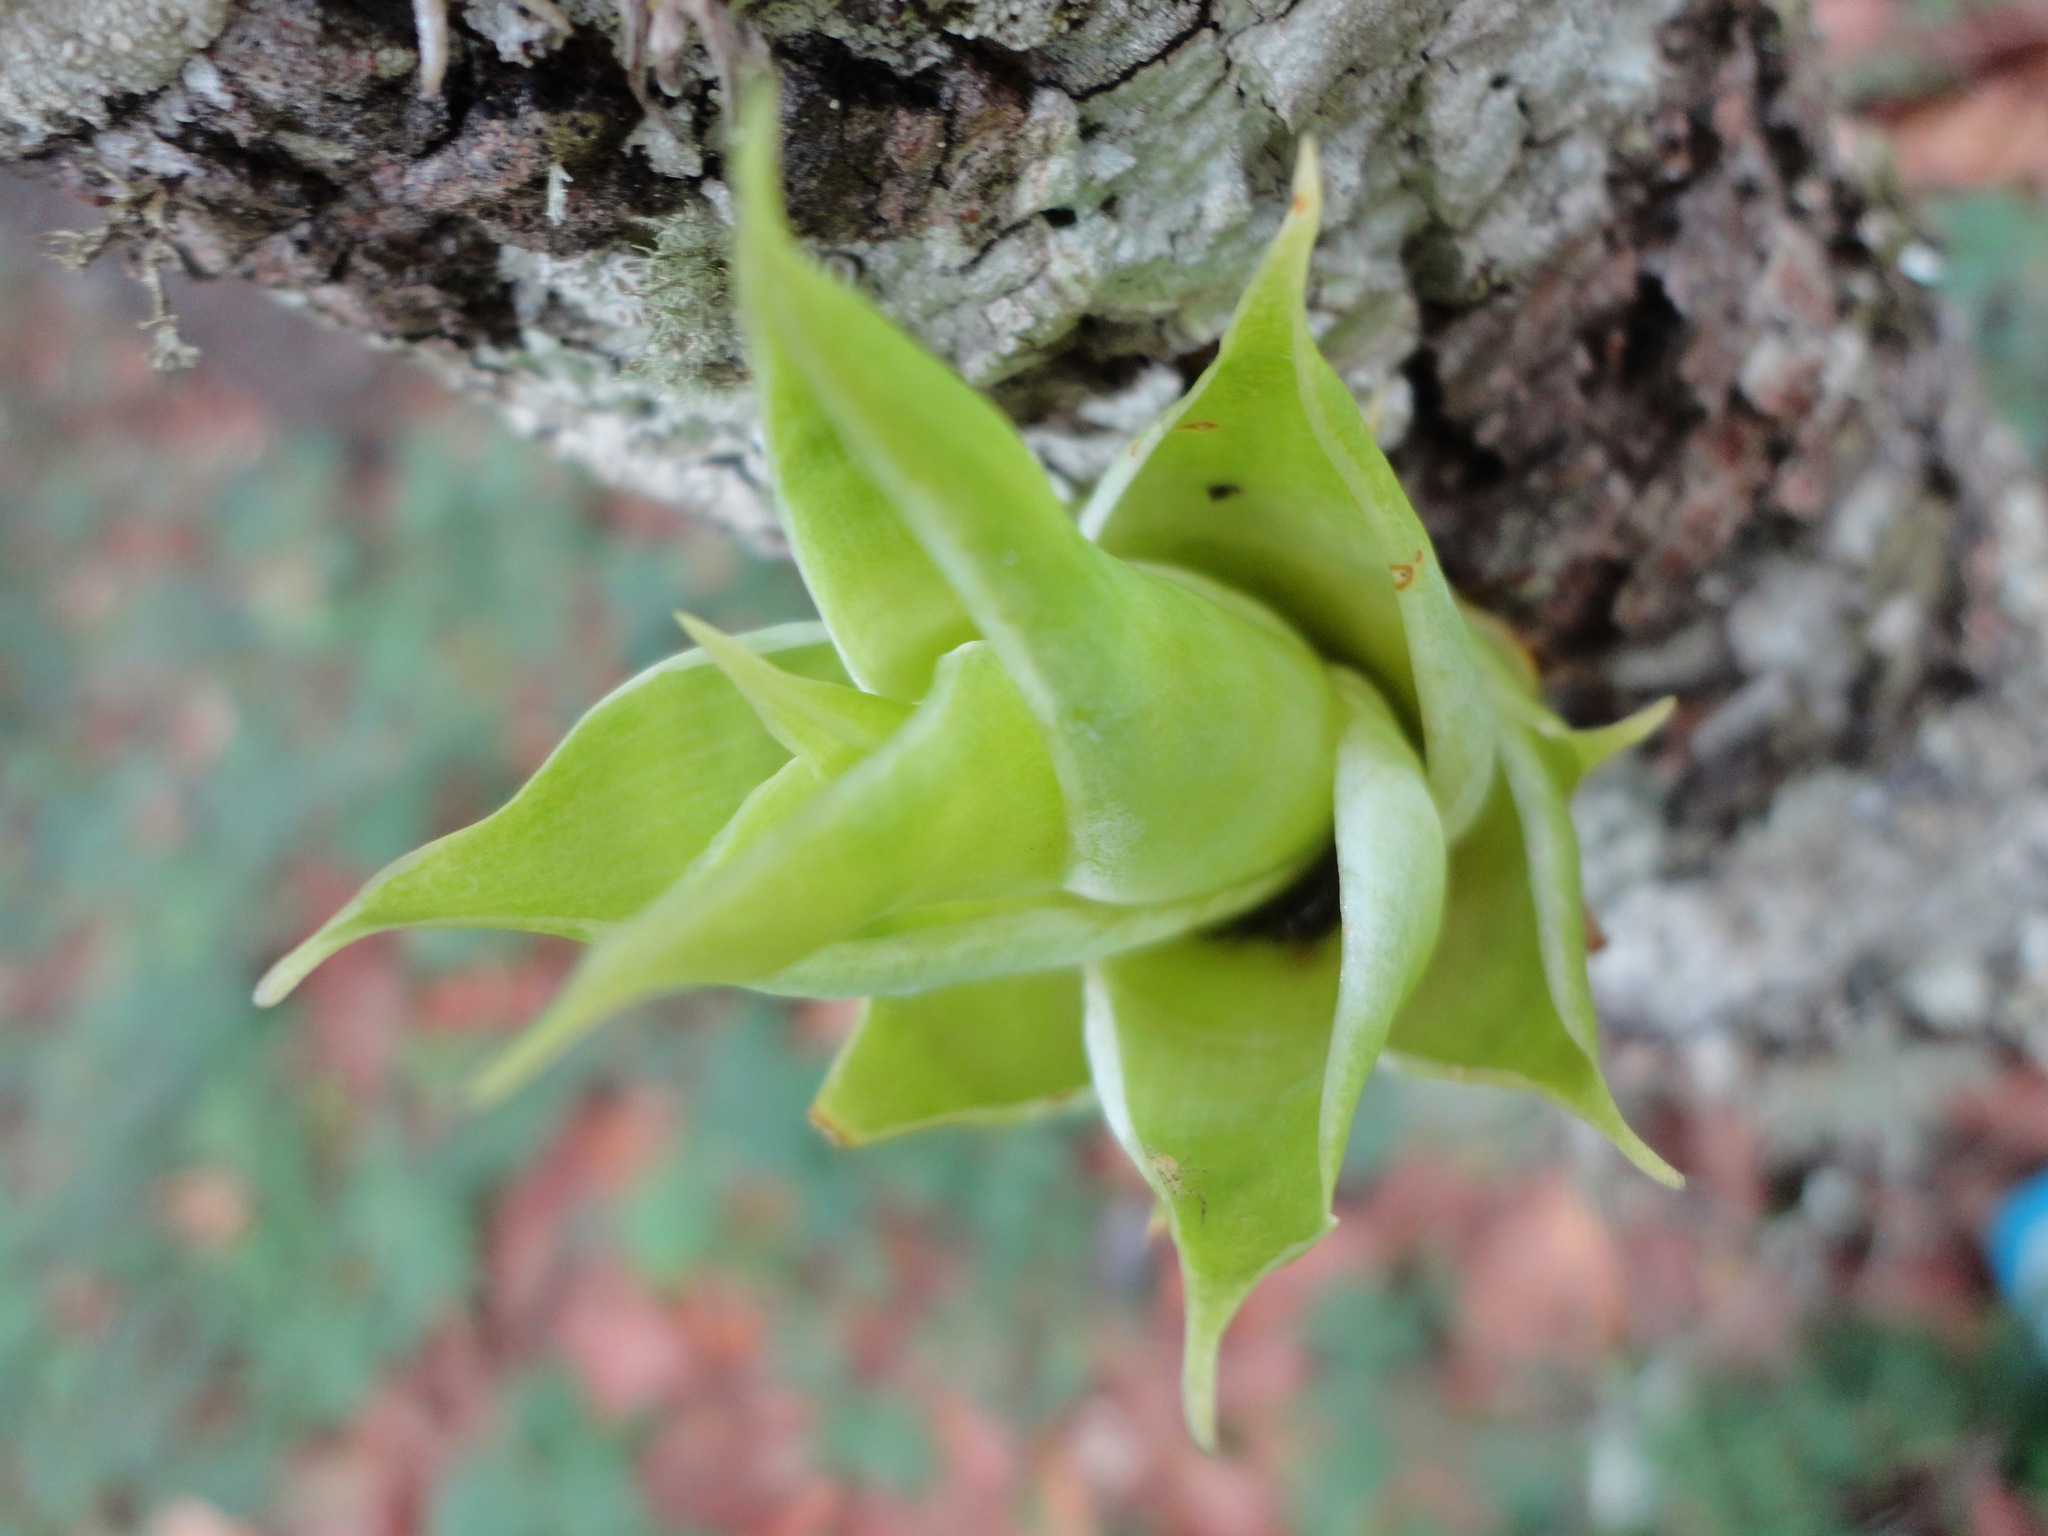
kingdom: Plantae
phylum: Tracheophyta
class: Liliopsida
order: Poales
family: Bromeliaceae
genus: Catopsis
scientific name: Catopsis berteroniana
